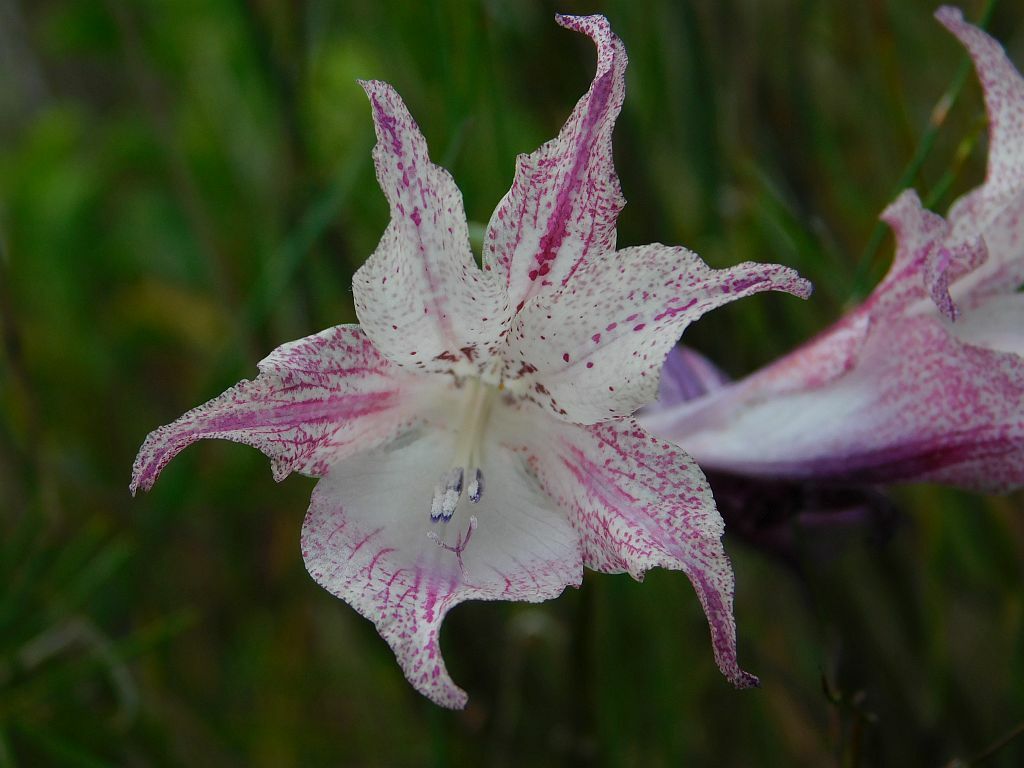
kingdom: Plantae
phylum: Tracheophyta
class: Liliopsida
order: Asparagales
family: Iridaceae
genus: Gladiolus
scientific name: Gladiolus maculatus
